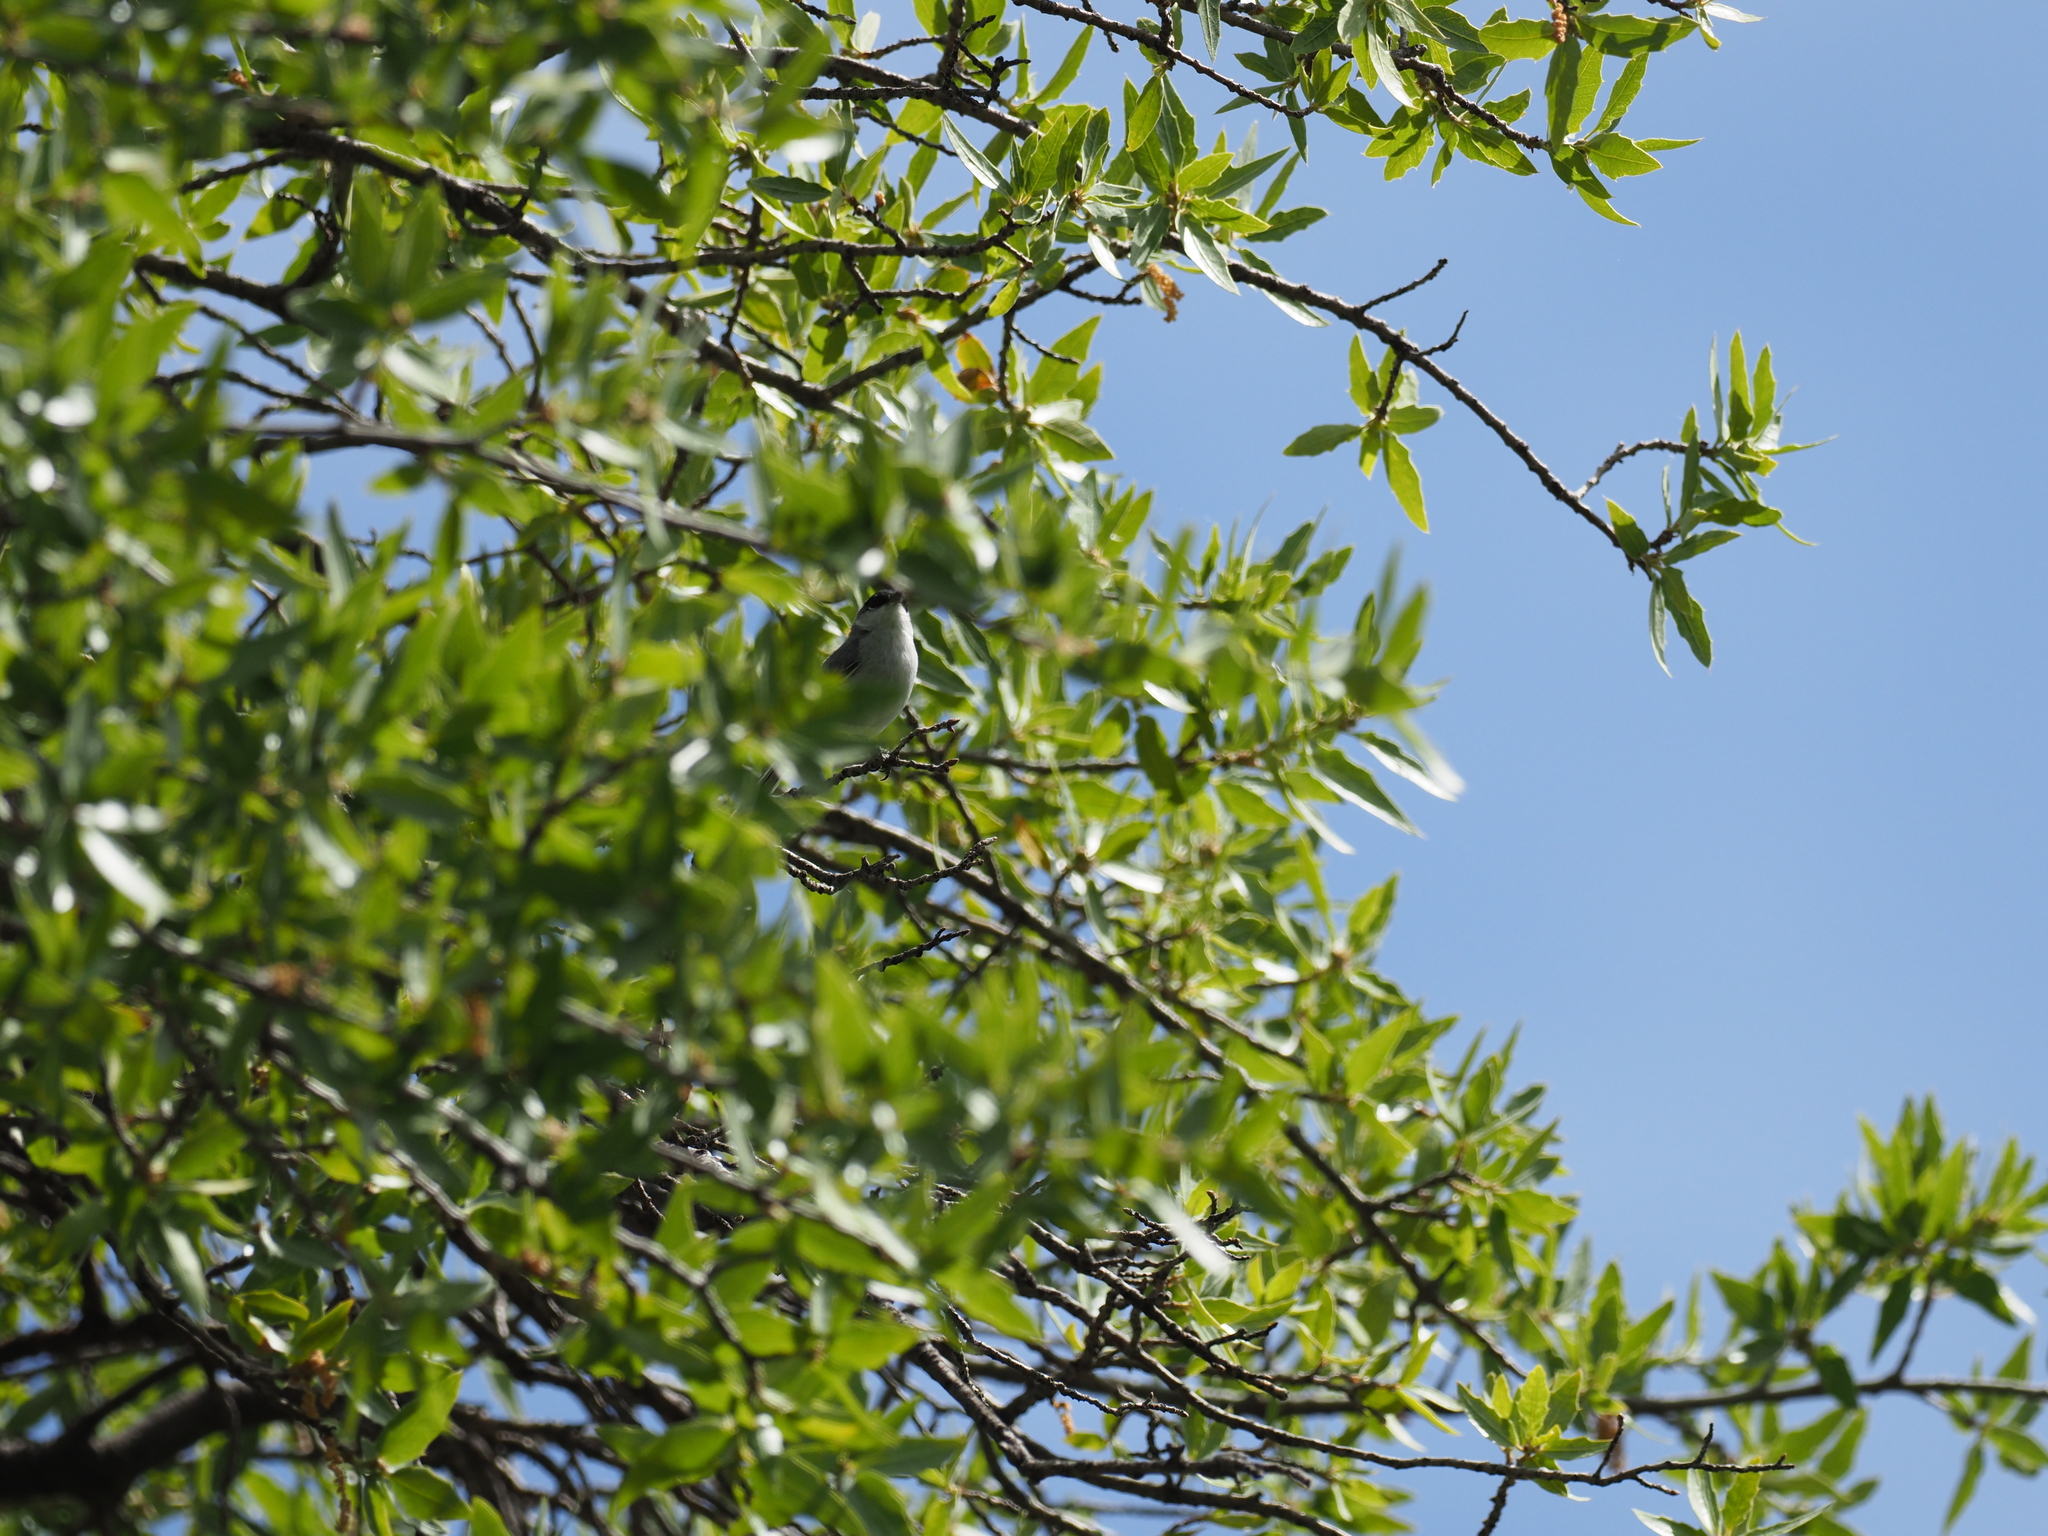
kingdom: Animalia
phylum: Chordata
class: Aves
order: Passeriformes
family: Polioptilidae
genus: Polioptila
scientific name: Polioptila nigriceps
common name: Black-capped gnatcatcher
